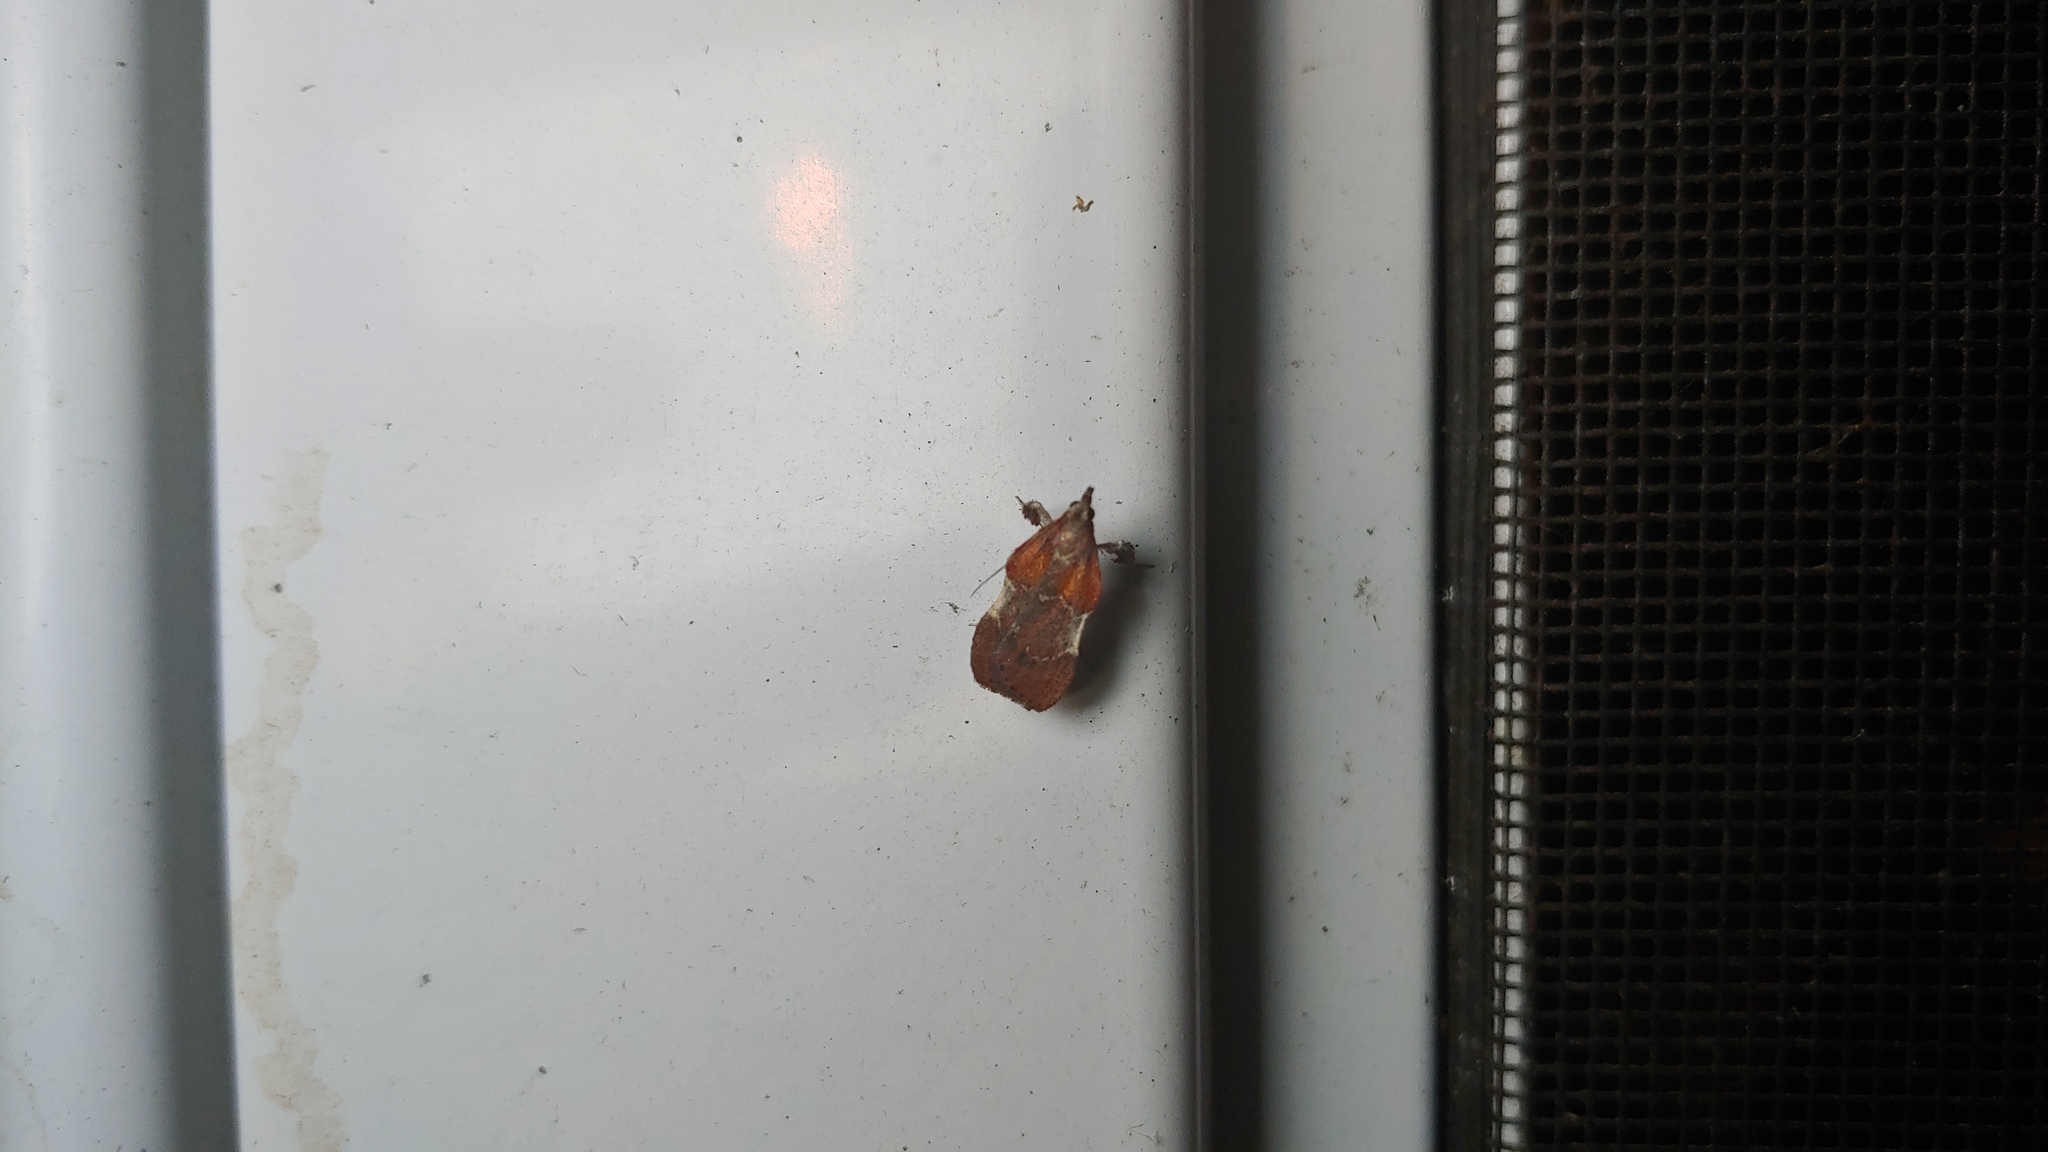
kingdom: Animalia
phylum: Arthropoda
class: Insecta
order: Lepidoptera
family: Pyralidae
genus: Galasa
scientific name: Galasa nigrinodis
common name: Boxwood leaftier moth
